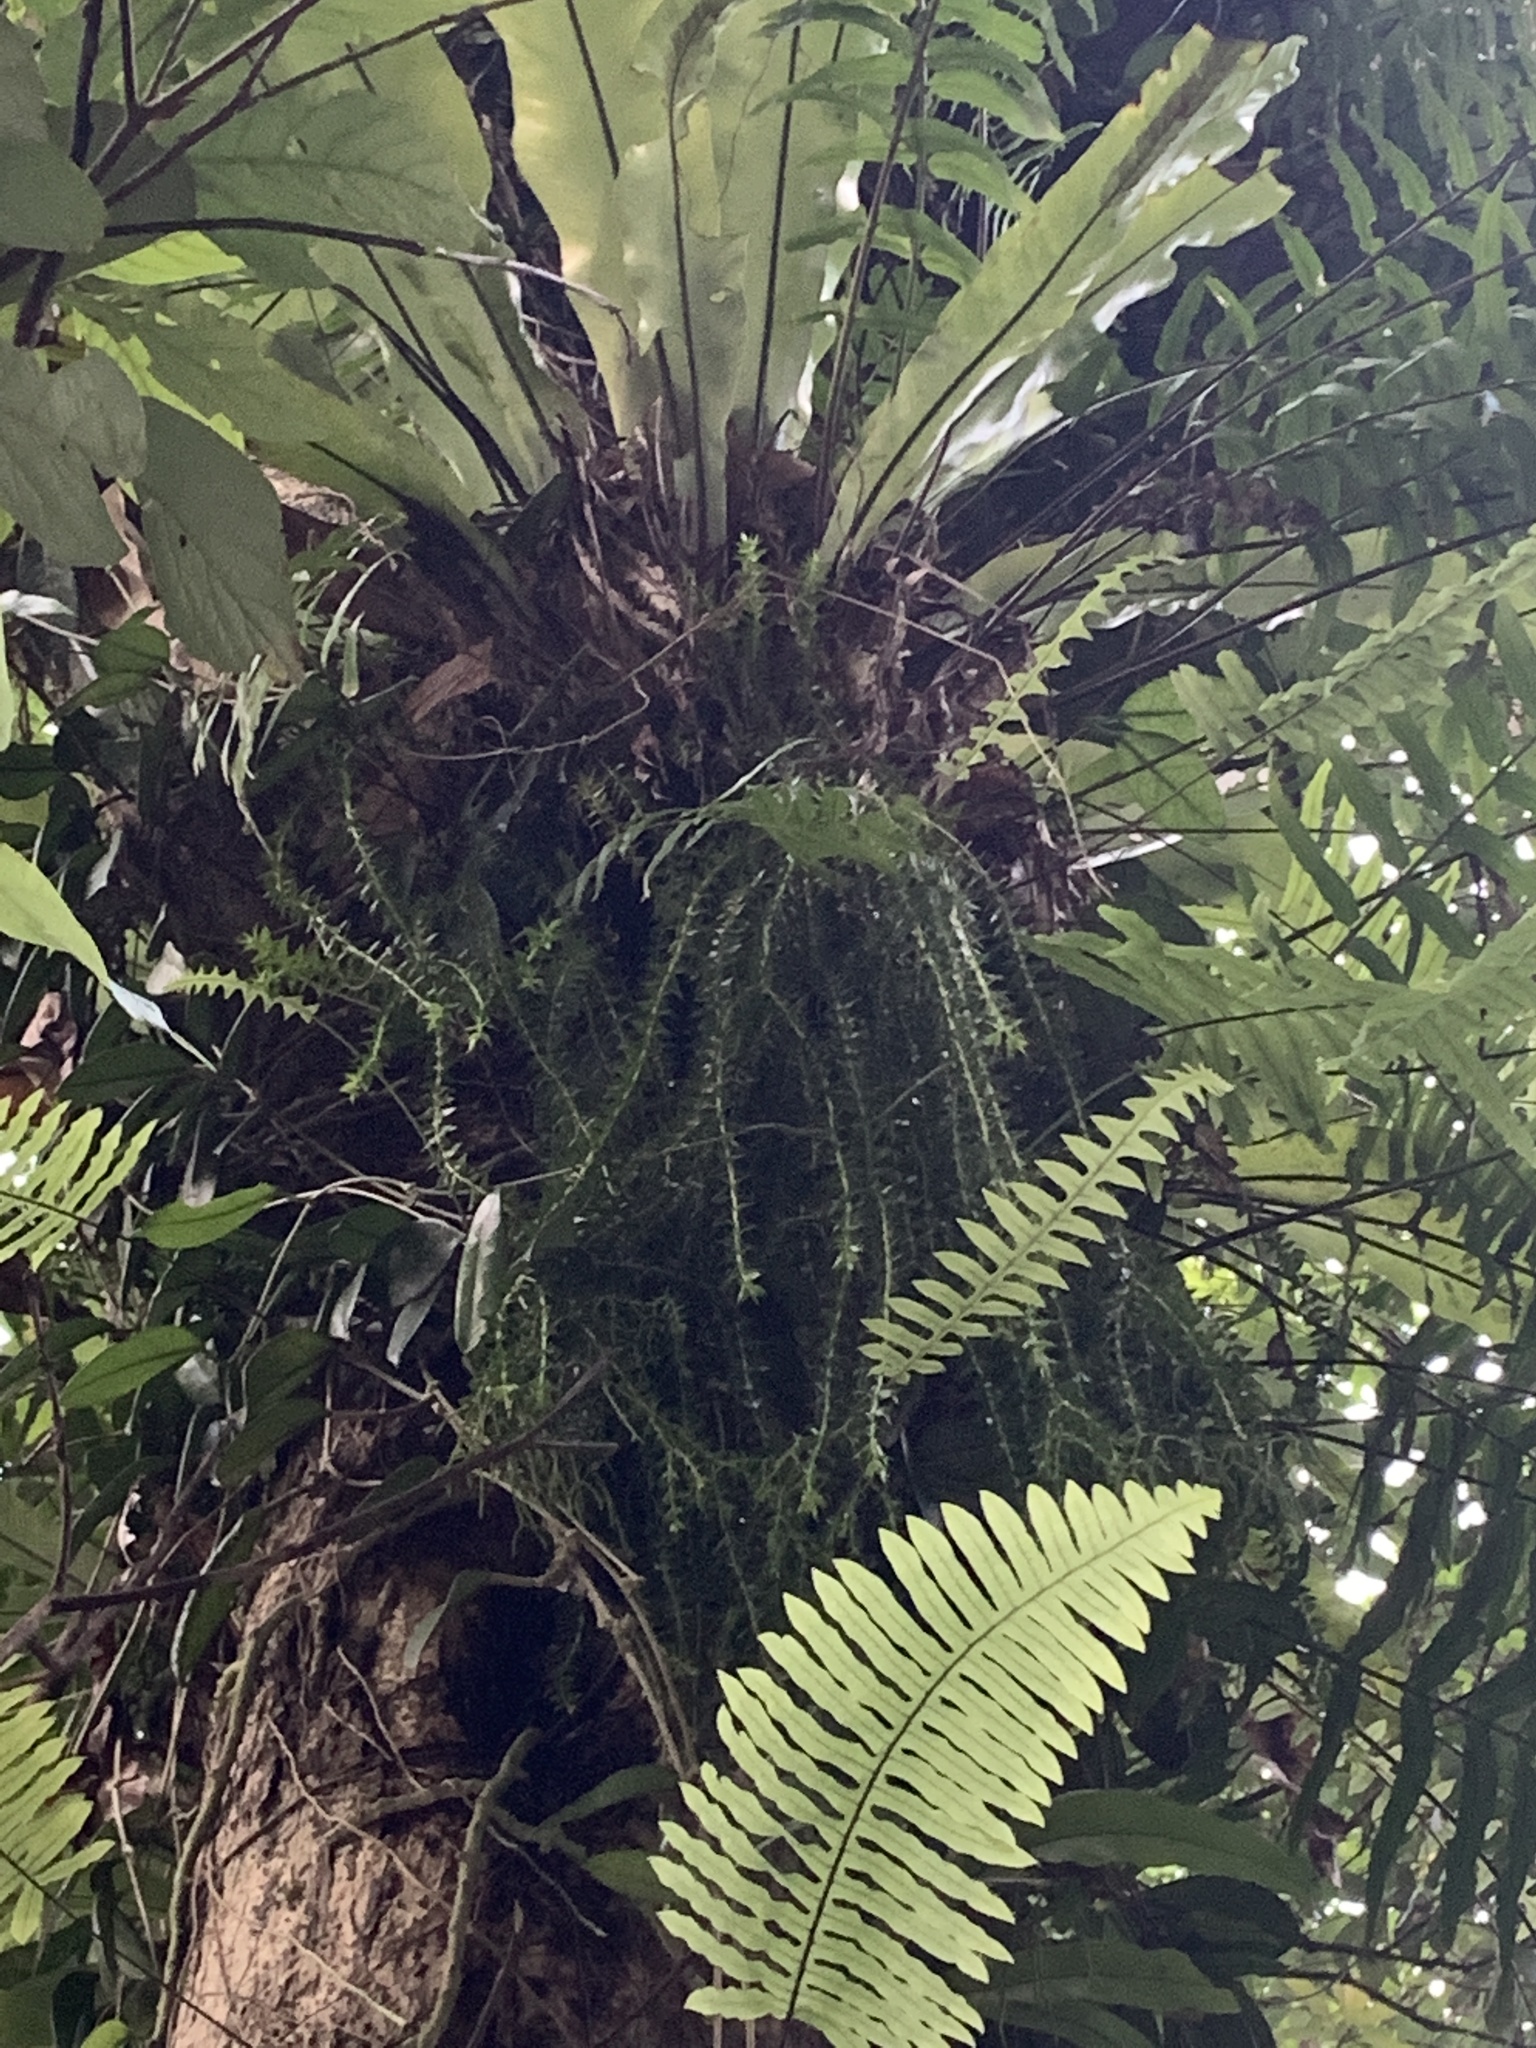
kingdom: Plantae
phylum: Tracheophyta
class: Lycopodiopsida
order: Lycopodiales
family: Lycopodiaceae
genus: Phlegmariurus
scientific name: Phlegmariurus phlegmaria
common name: Coarse tassel-fern
